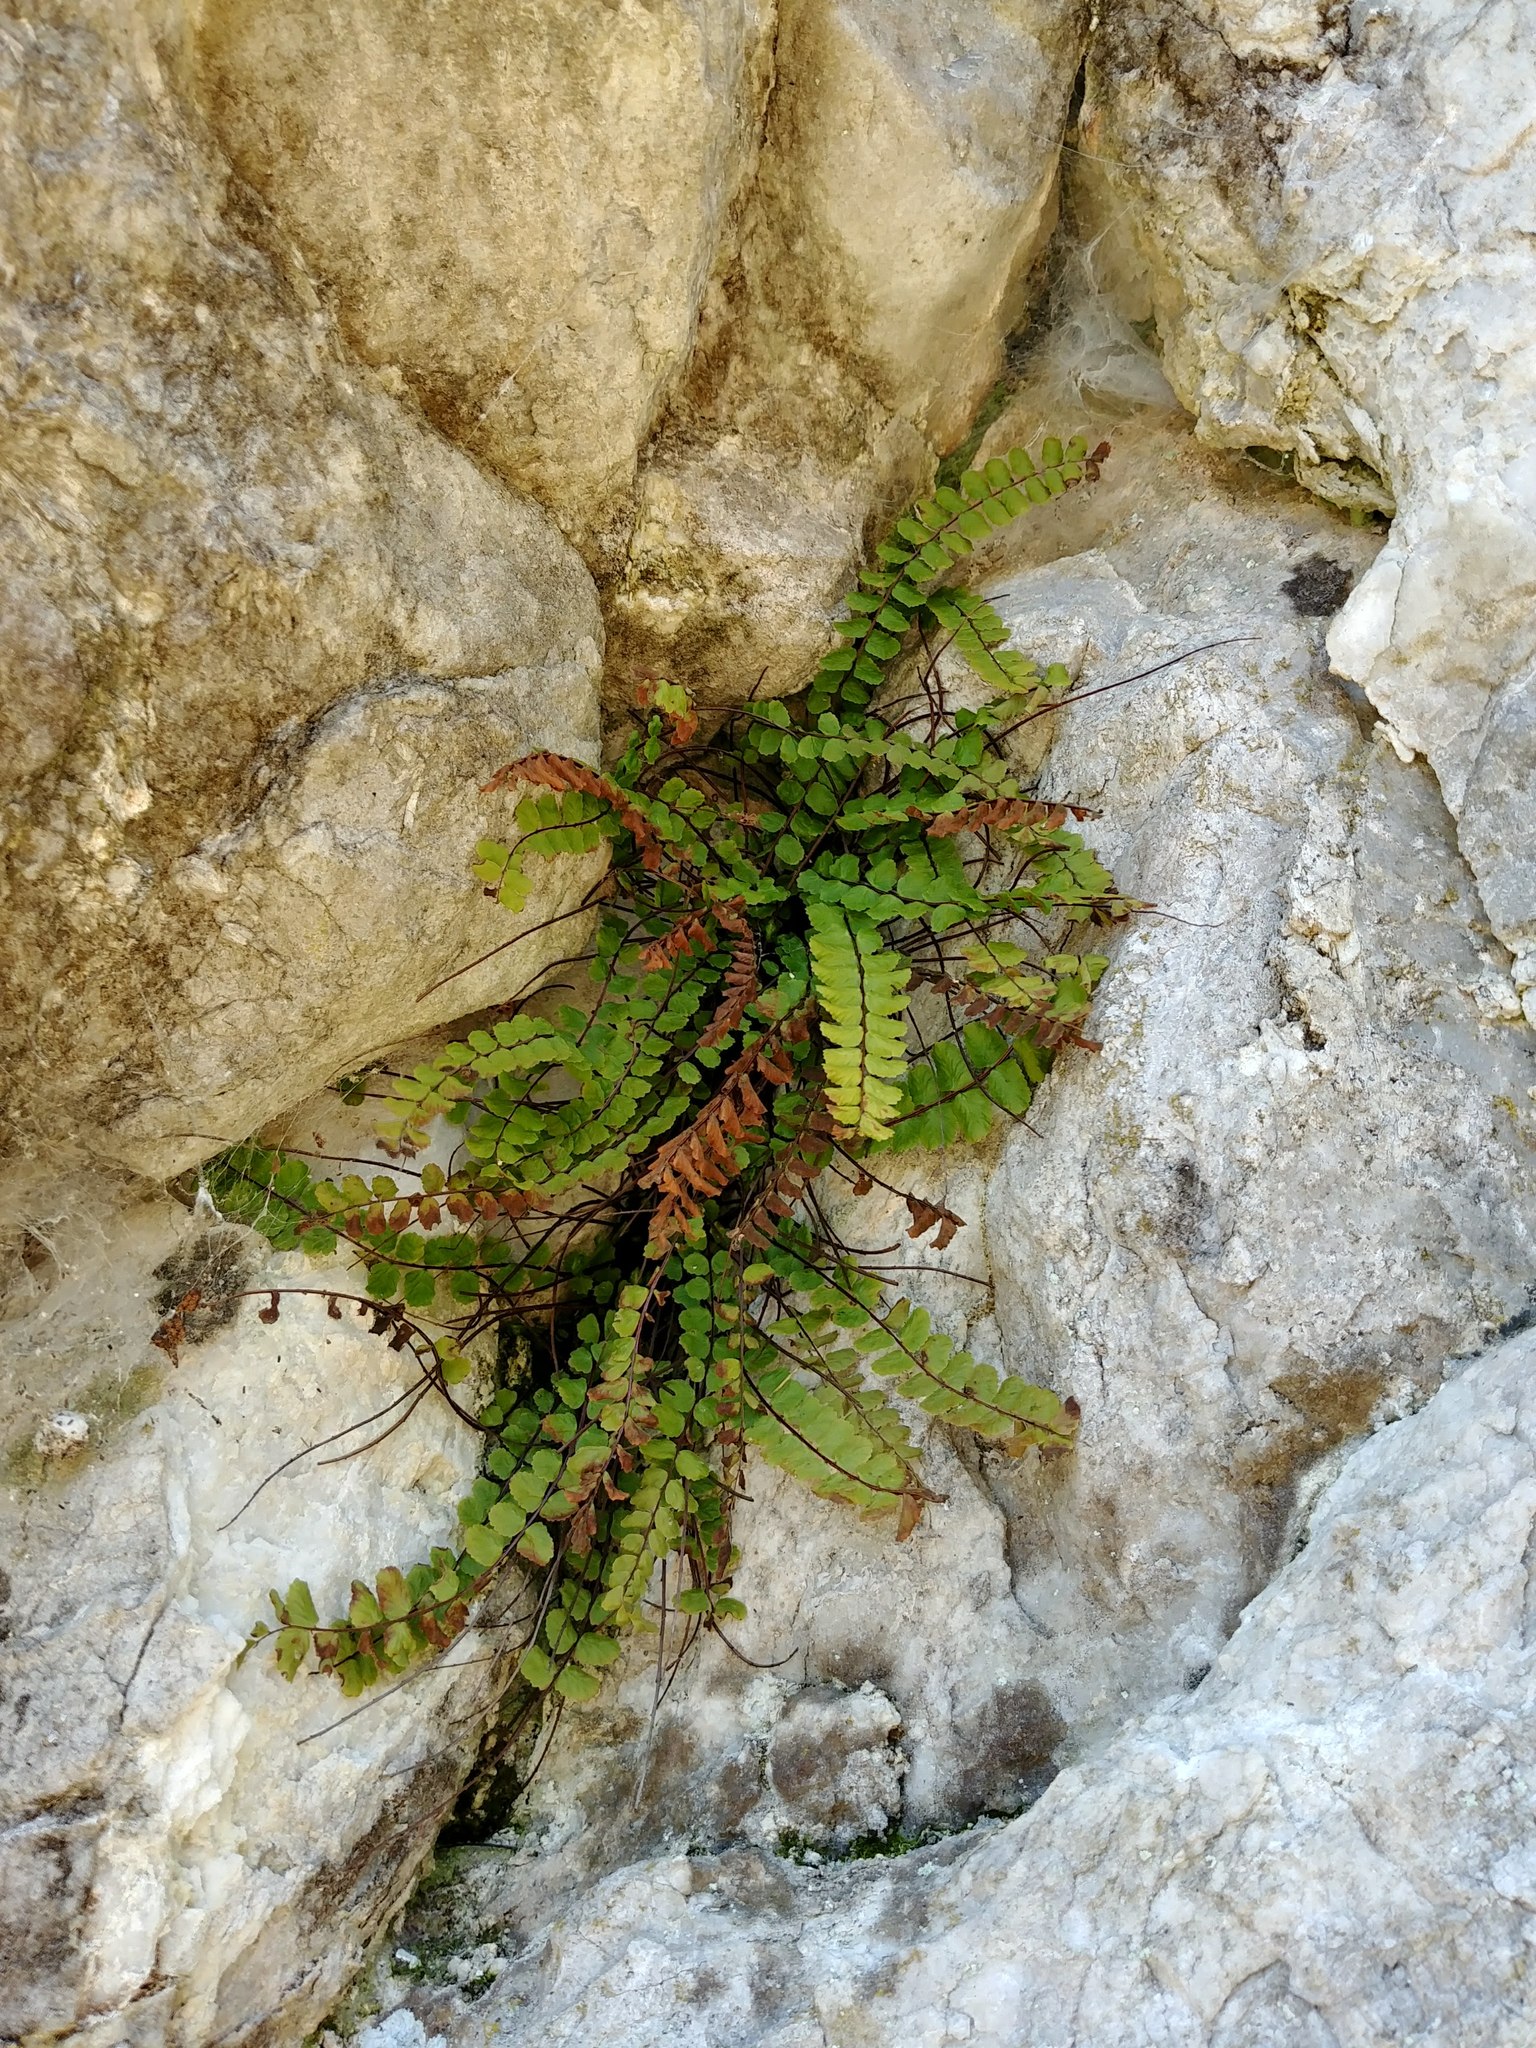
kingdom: Plantae
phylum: Tracheophyta
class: Polypodiopsida
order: Polypodiales
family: Aspleniaceae
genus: Asplenium
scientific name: Asplenium trichomanes
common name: Maidenhair spleenwort
